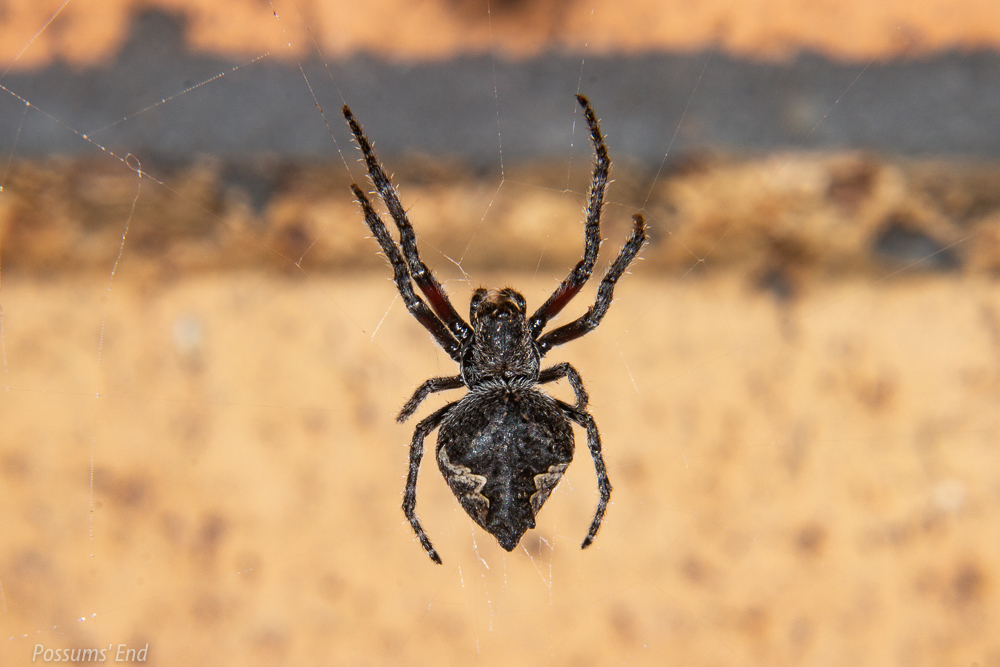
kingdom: Animalia
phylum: Arthropoda
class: Arachnida
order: Araneae
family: Araneidae
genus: Eriophora
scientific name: Eriophora pustulosa
